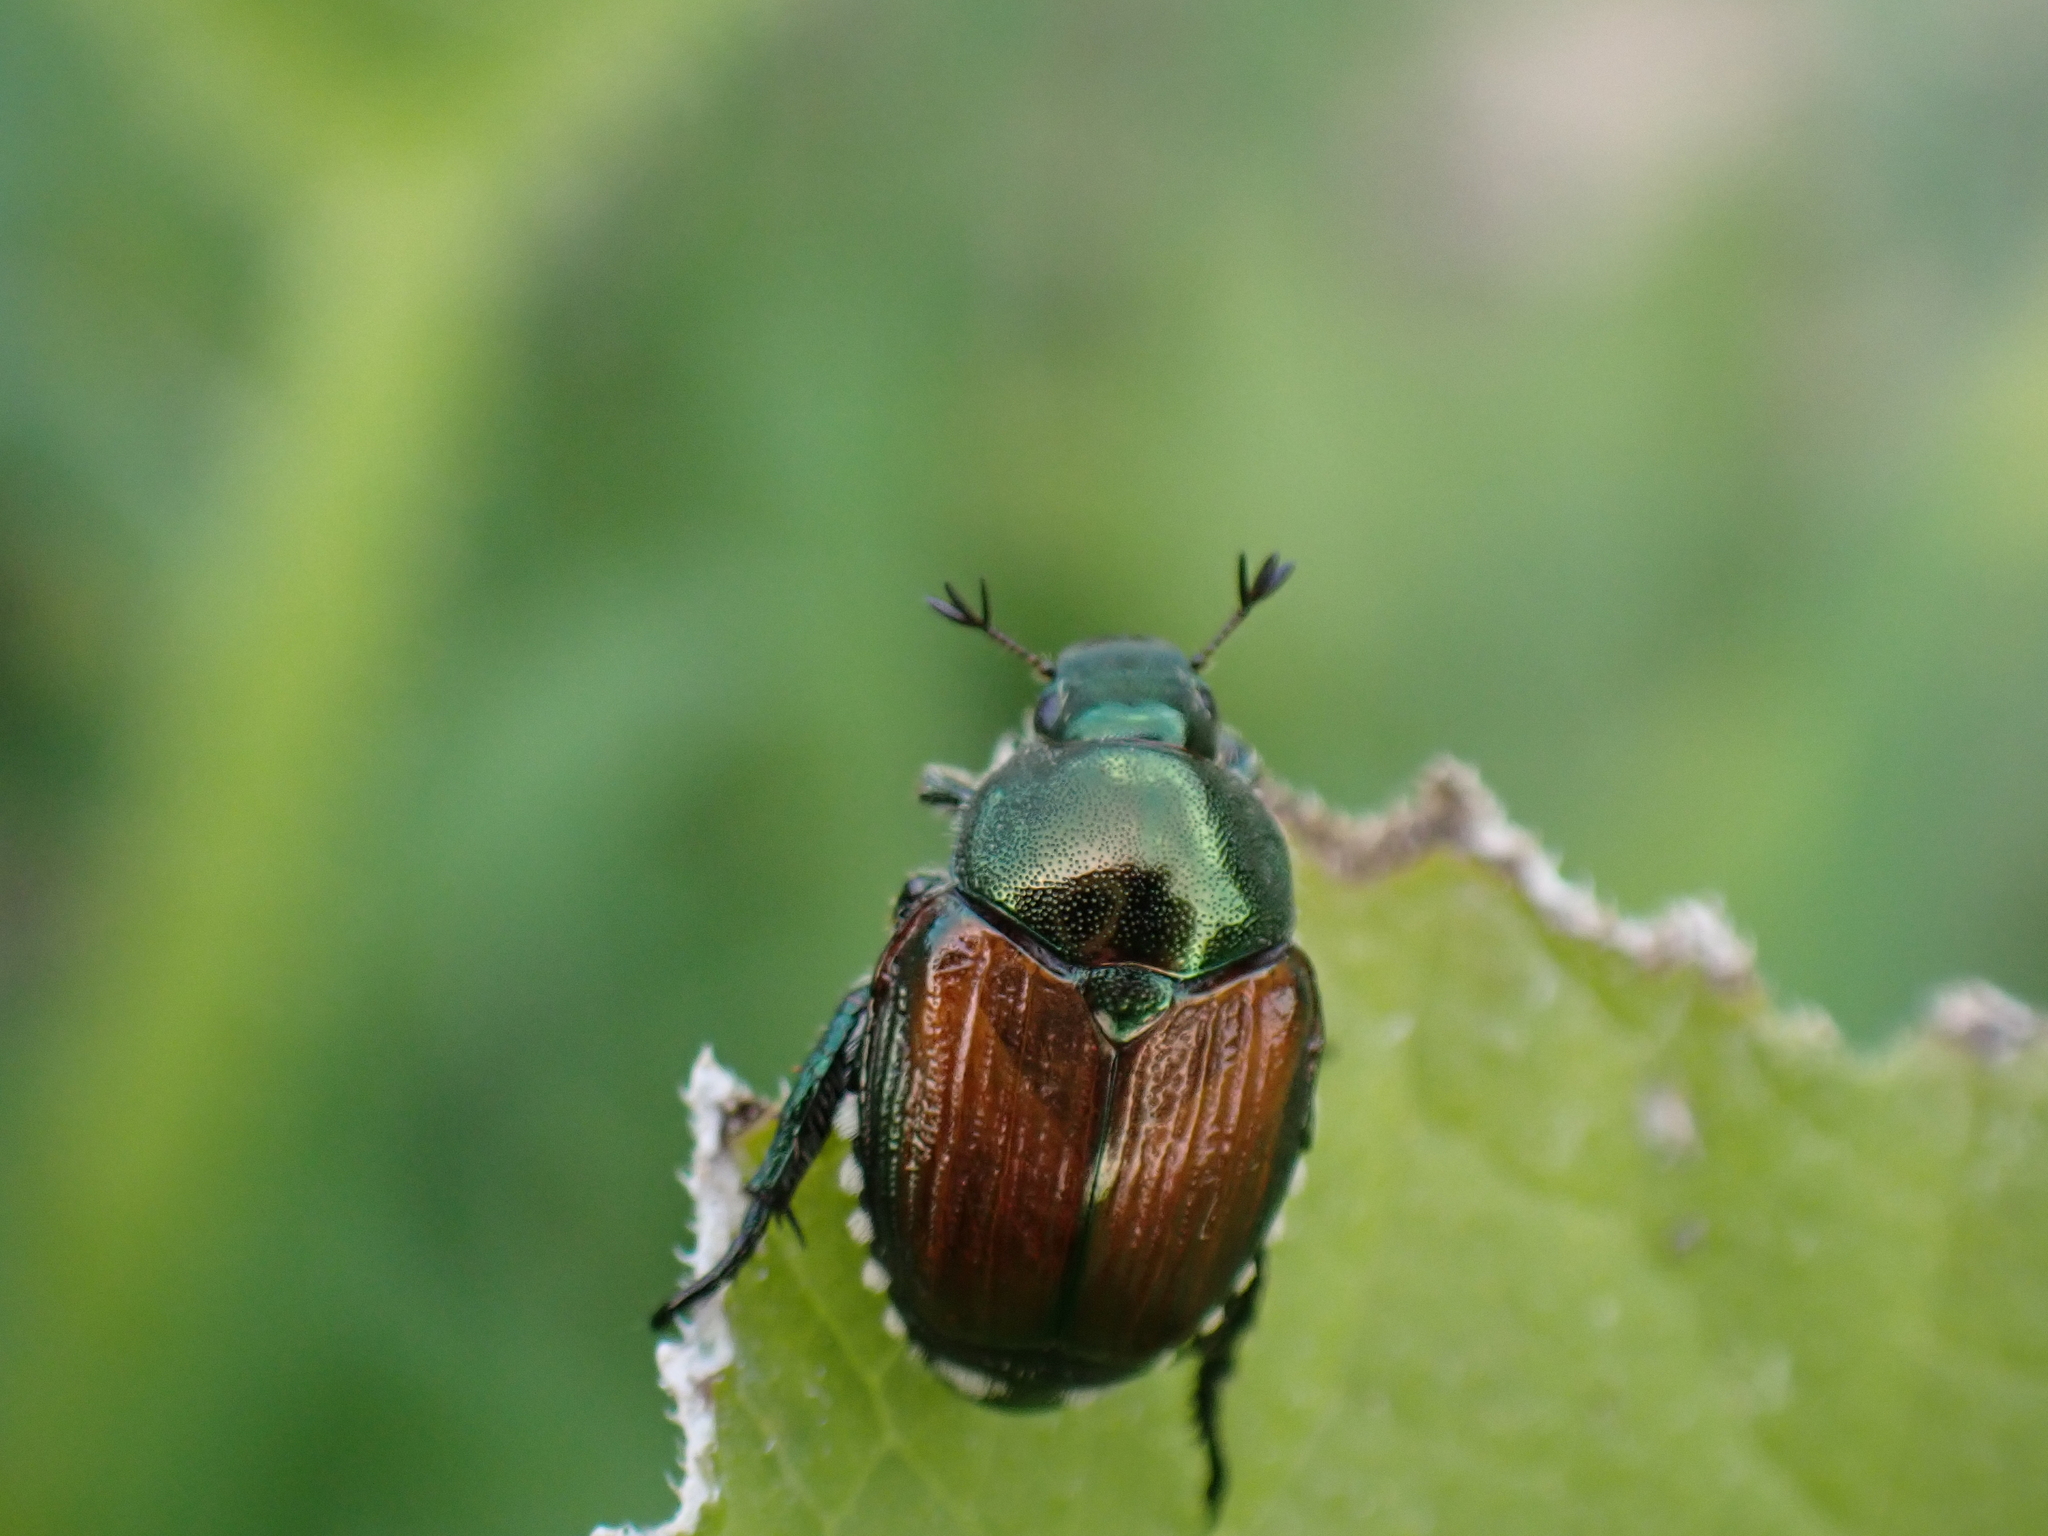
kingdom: Animalia
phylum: Arthropoda
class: Insecta
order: Coleoptera
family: Scarabaeidae
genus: Popillia
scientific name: Popillia japonica
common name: Japanese beetle
